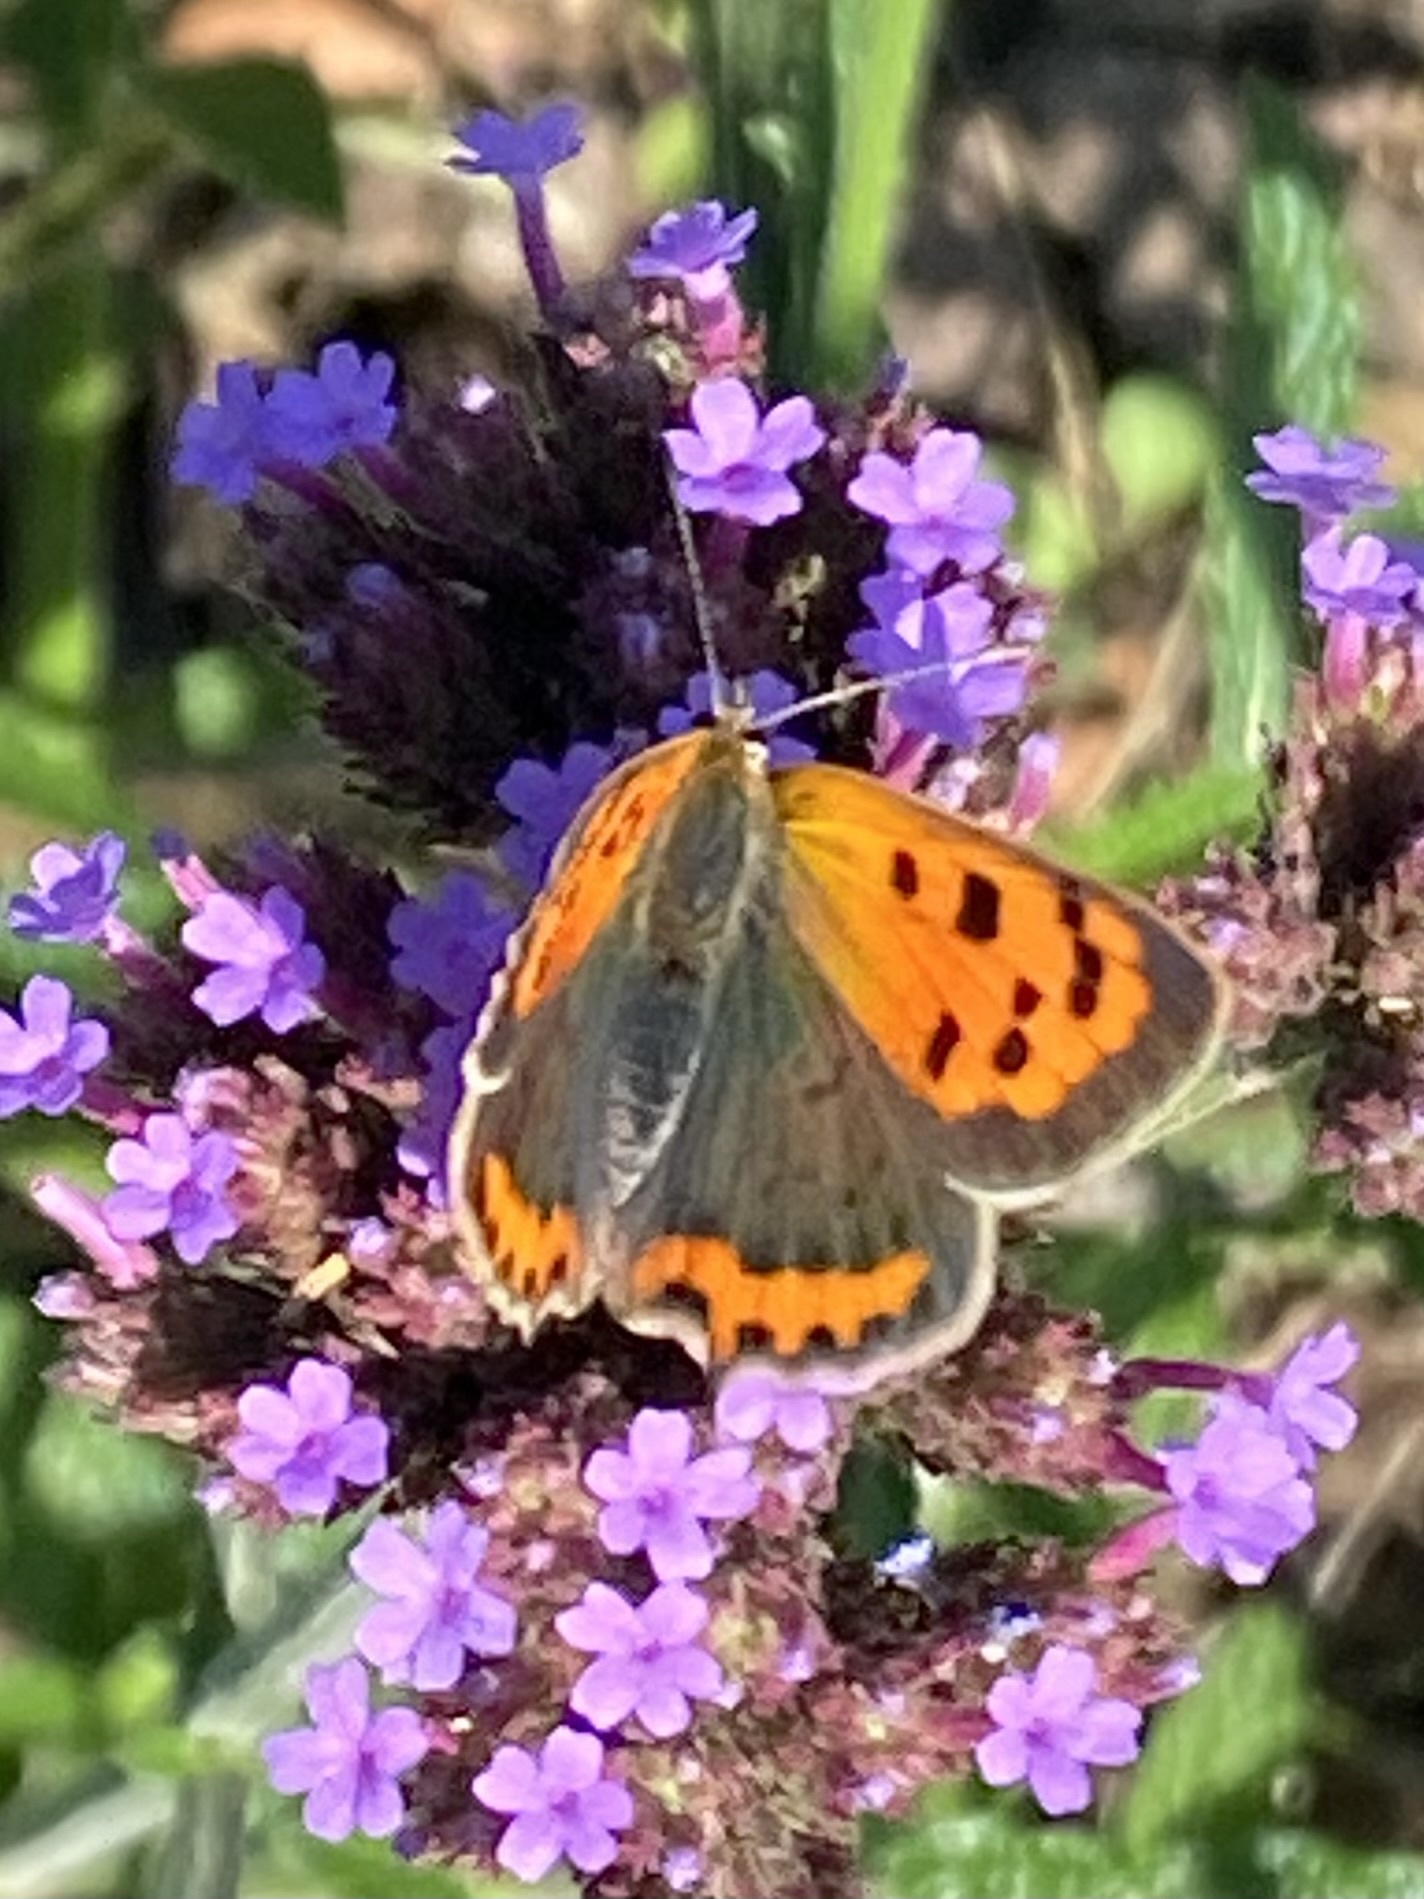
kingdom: Animalia
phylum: Arthropoda
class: Insecta
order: Lepidoptera
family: Lycaenidae
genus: Lycaena
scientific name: Lycaena phlaeas
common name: Small copper
